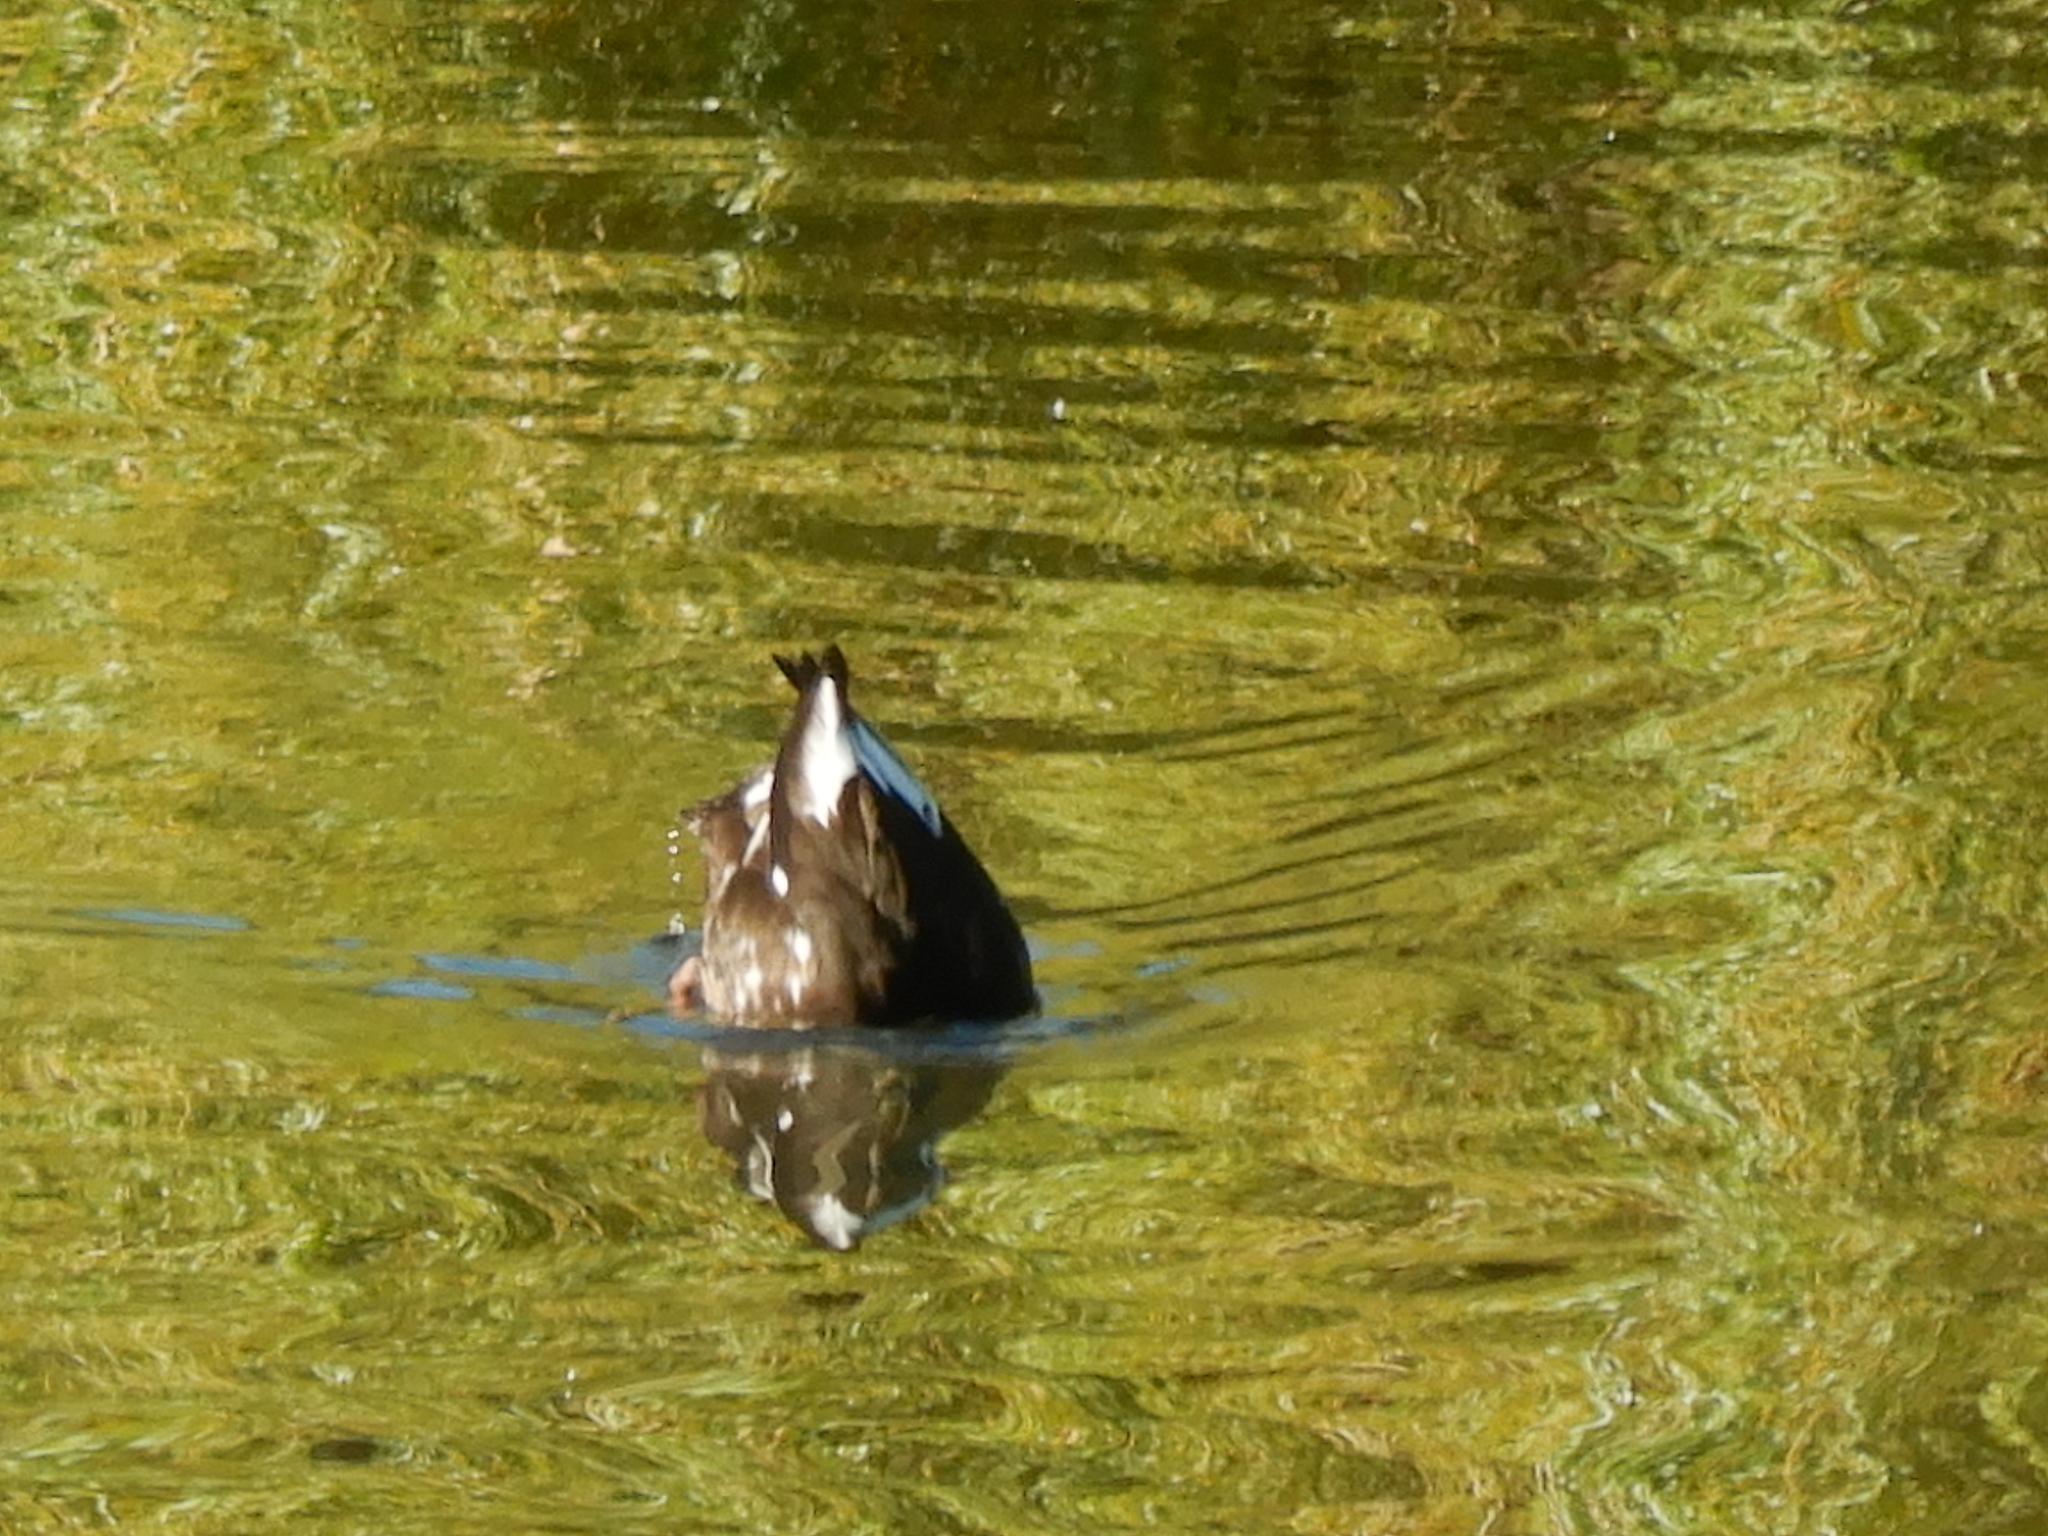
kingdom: Animalia
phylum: Chordata
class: Aves
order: Anseriformes
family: Anatidae
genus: Anas
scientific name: Anas platyrhynchos
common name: Mallard
